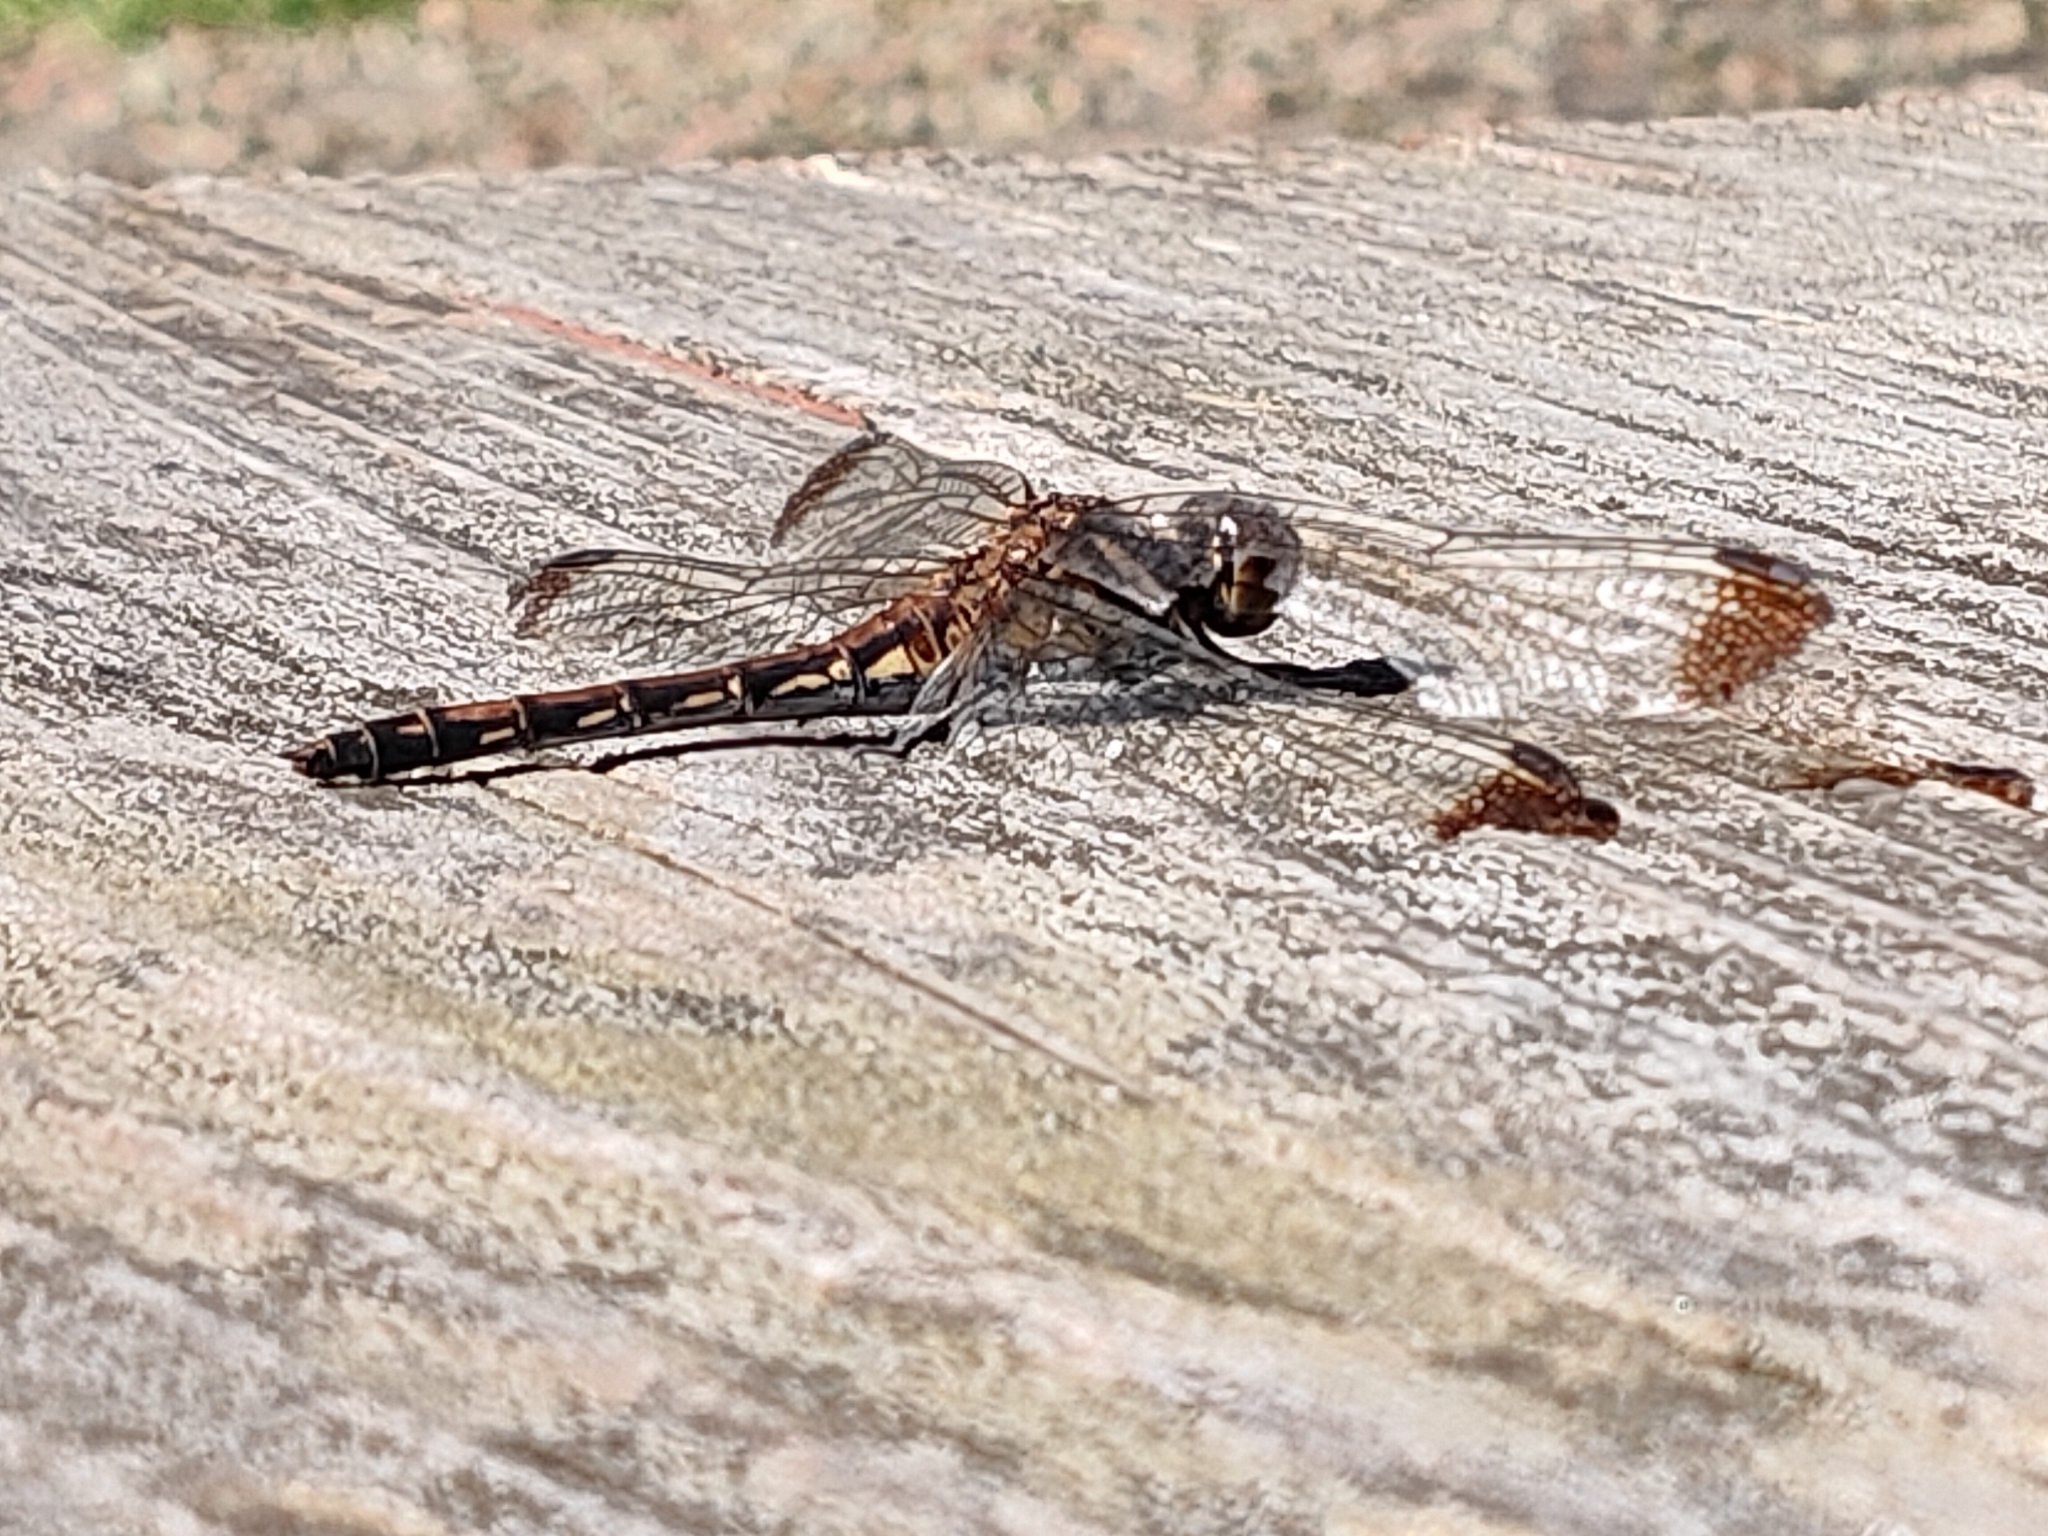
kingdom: Animalia
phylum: Arthropoda
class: Insecta
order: Odonata
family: Libellulidae
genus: Sympetrum
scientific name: Sympetrum infuscatum
